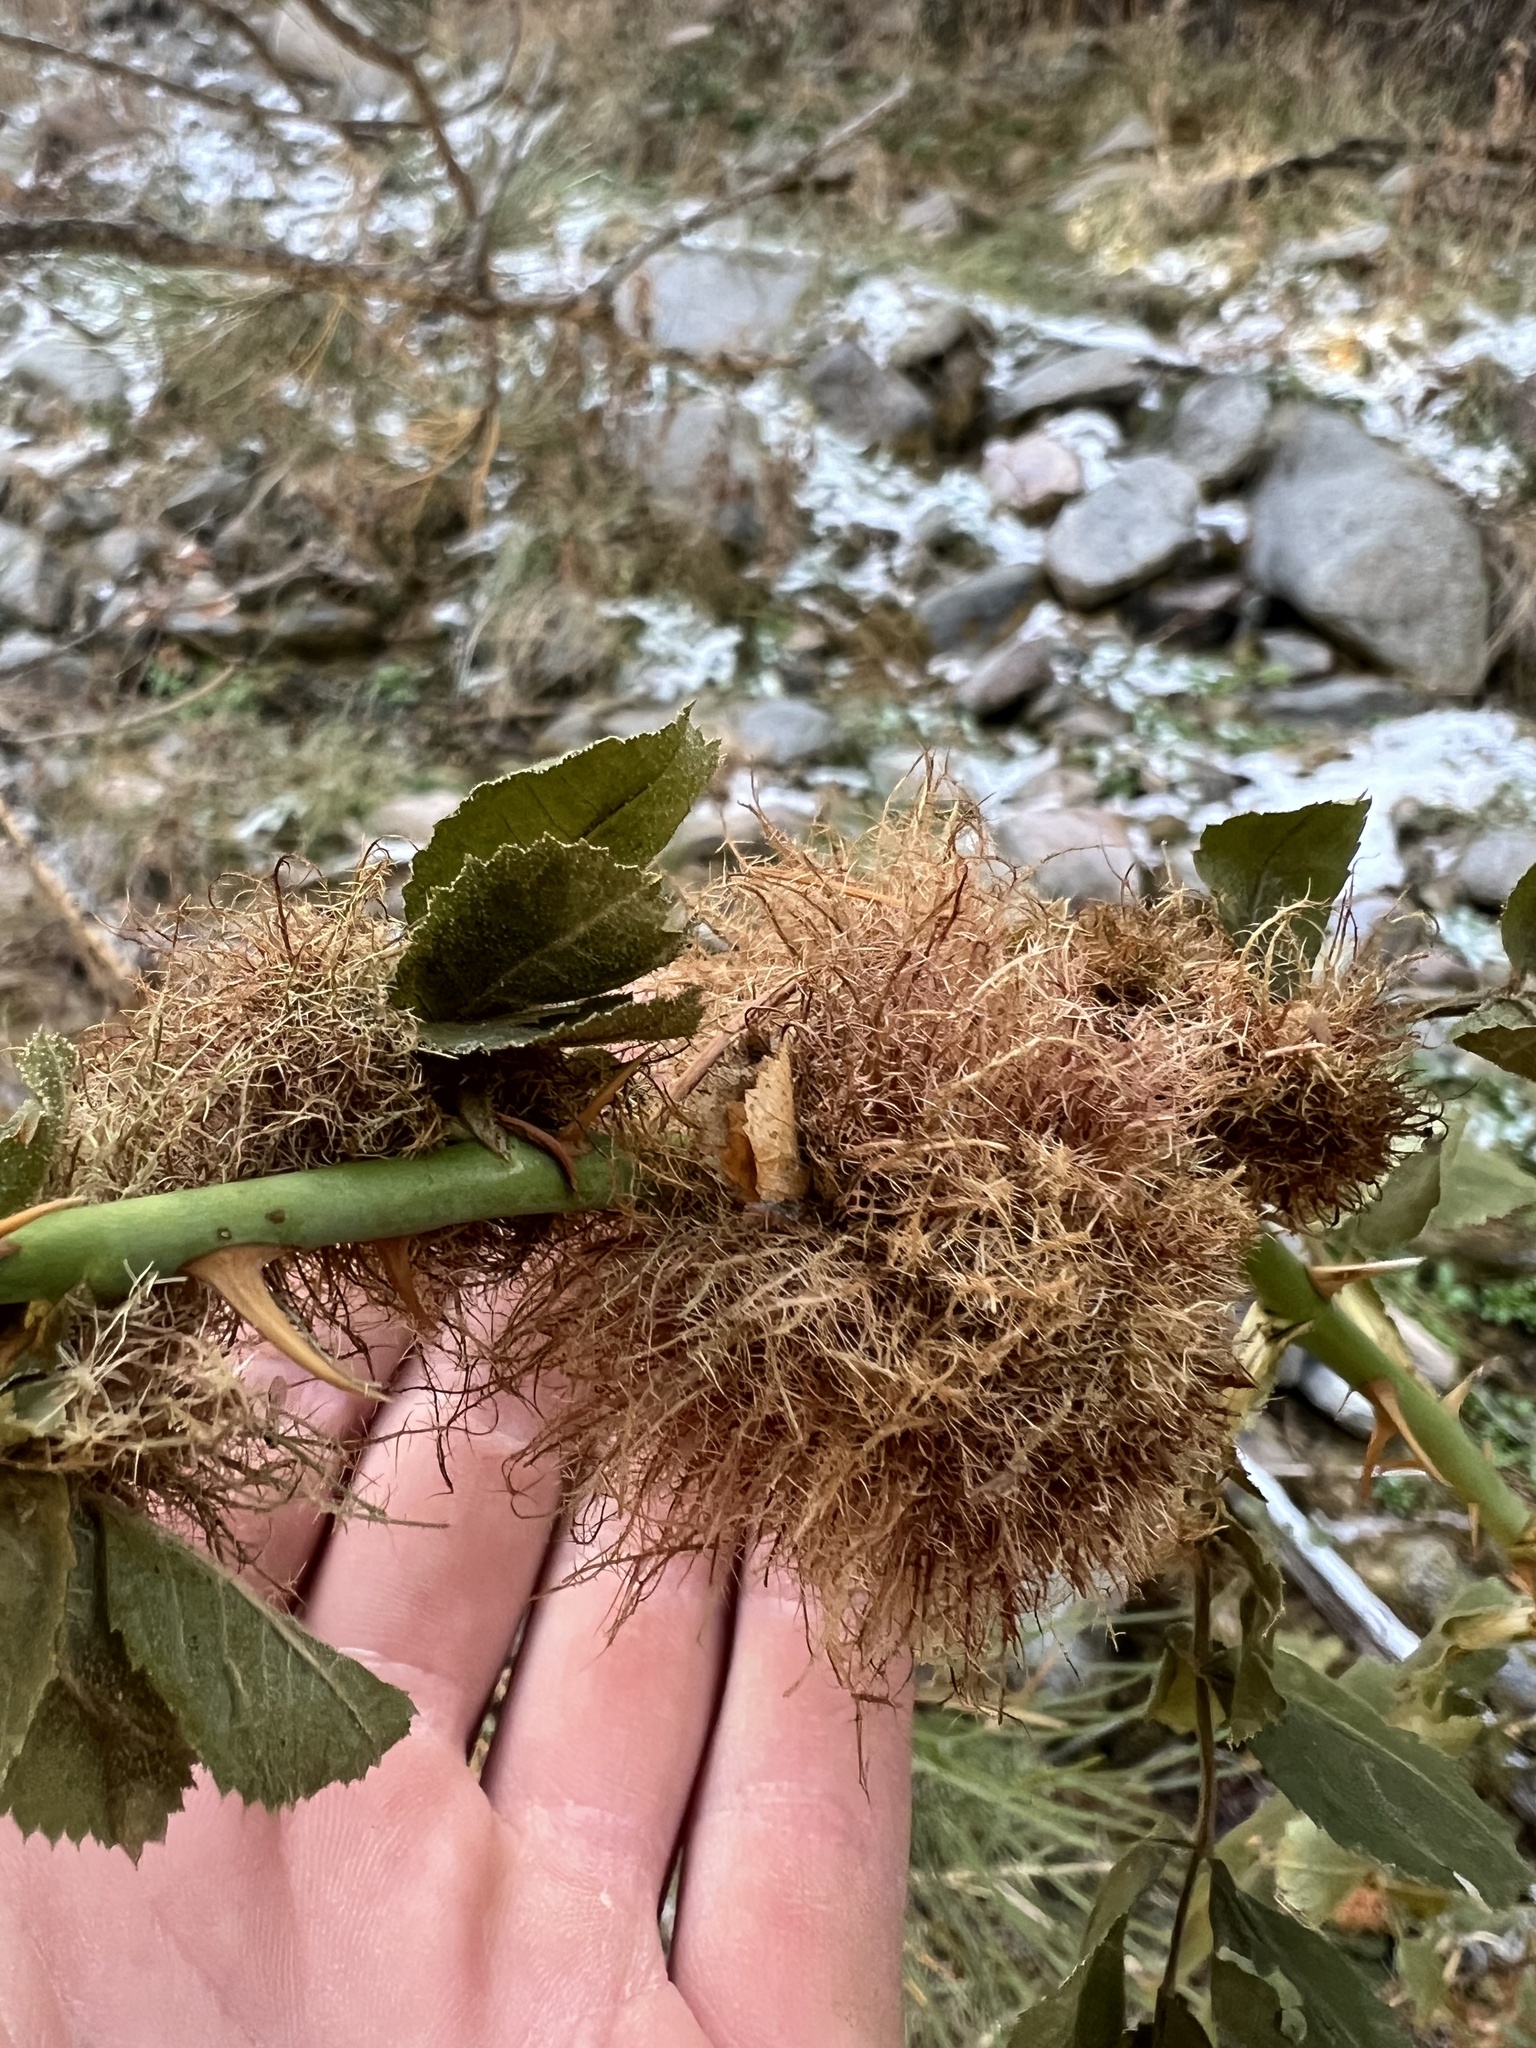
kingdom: Animalia
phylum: Arthropoda
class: Insecta
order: Hymenoptera
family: Cynipidae
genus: Diplolepis
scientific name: Diplolepis rosae
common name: Bedeguar gall
